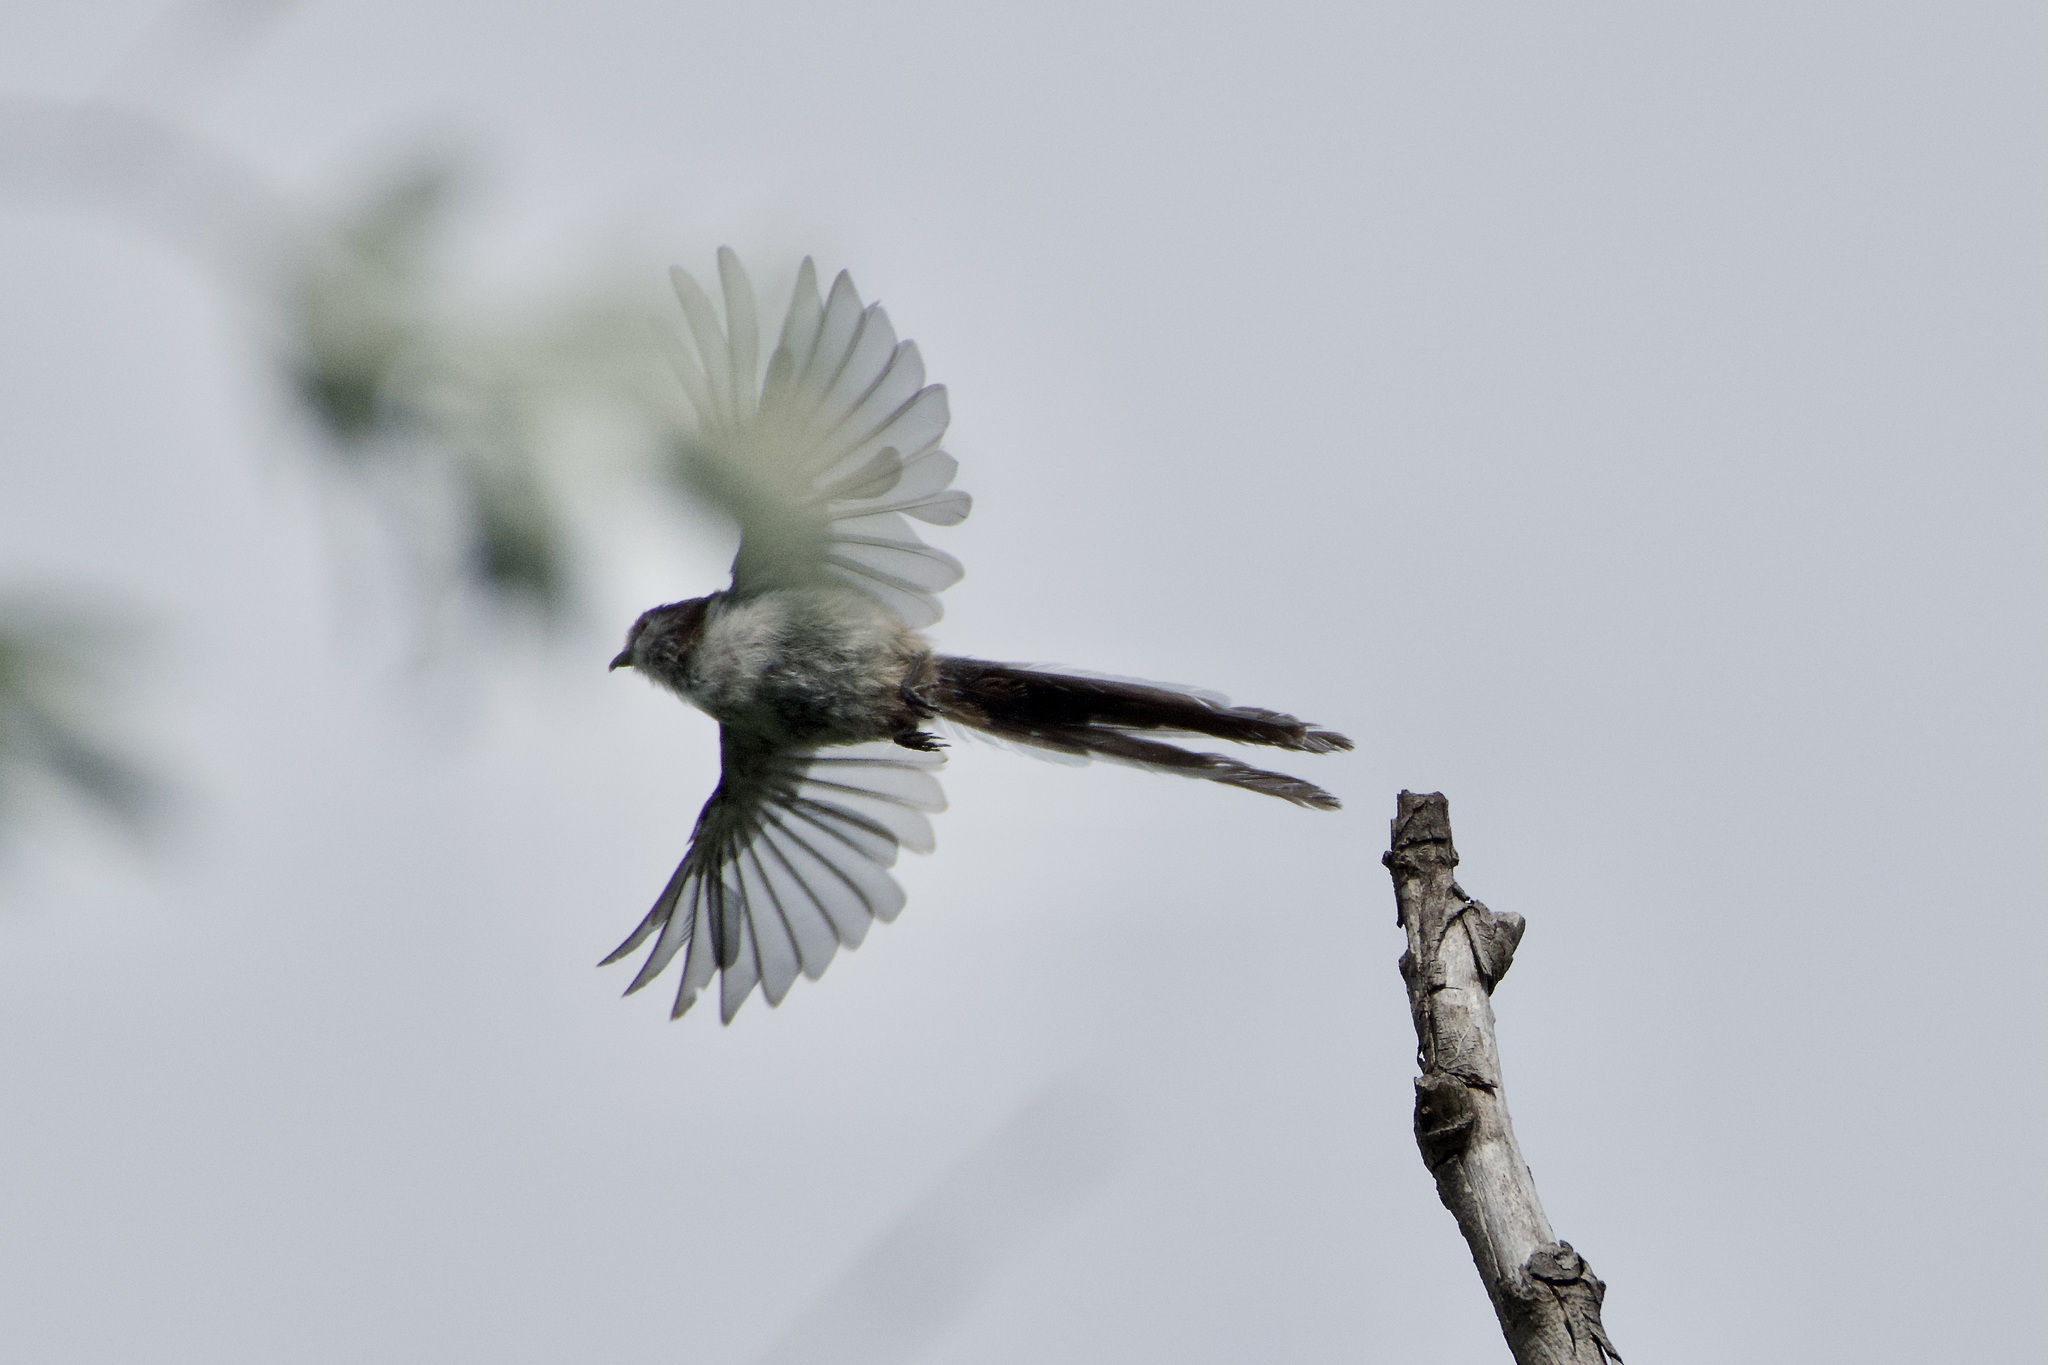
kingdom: Animalia
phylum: Chordata
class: Aves
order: Passeriformes
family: Aegithalidae
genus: Aegithalos
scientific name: Aegithalos caudatus
